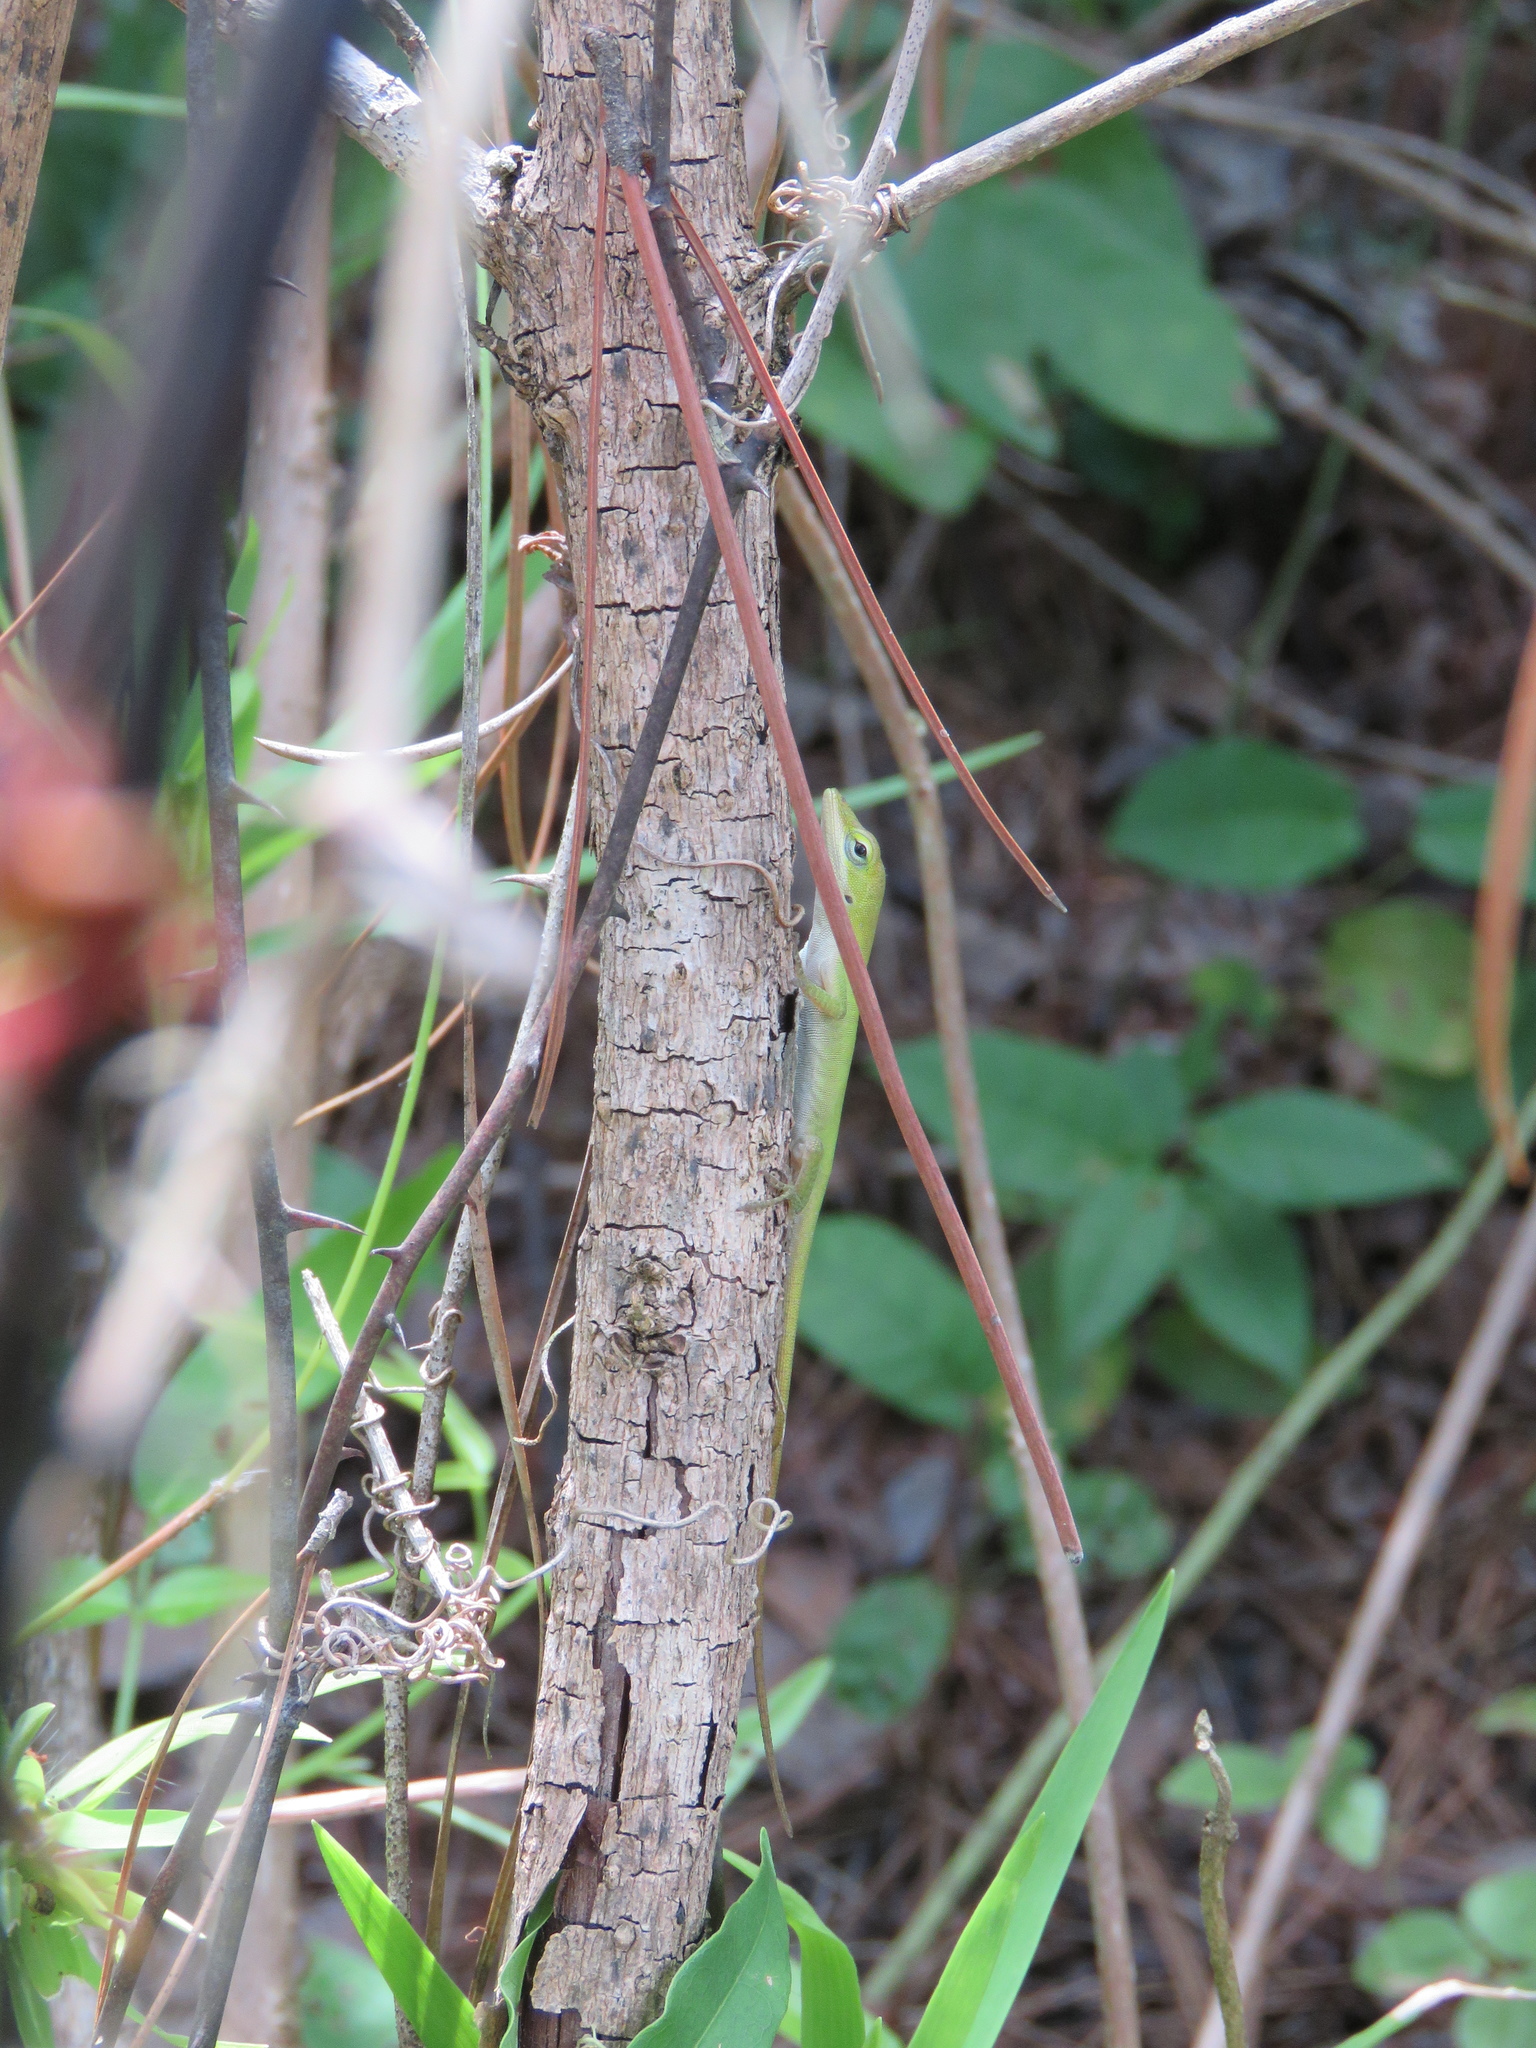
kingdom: Animalia
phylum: Chordata
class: Squamata
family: Dactyloidae
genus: Anolis
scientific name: Anolis carolinensis
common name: Green anole
